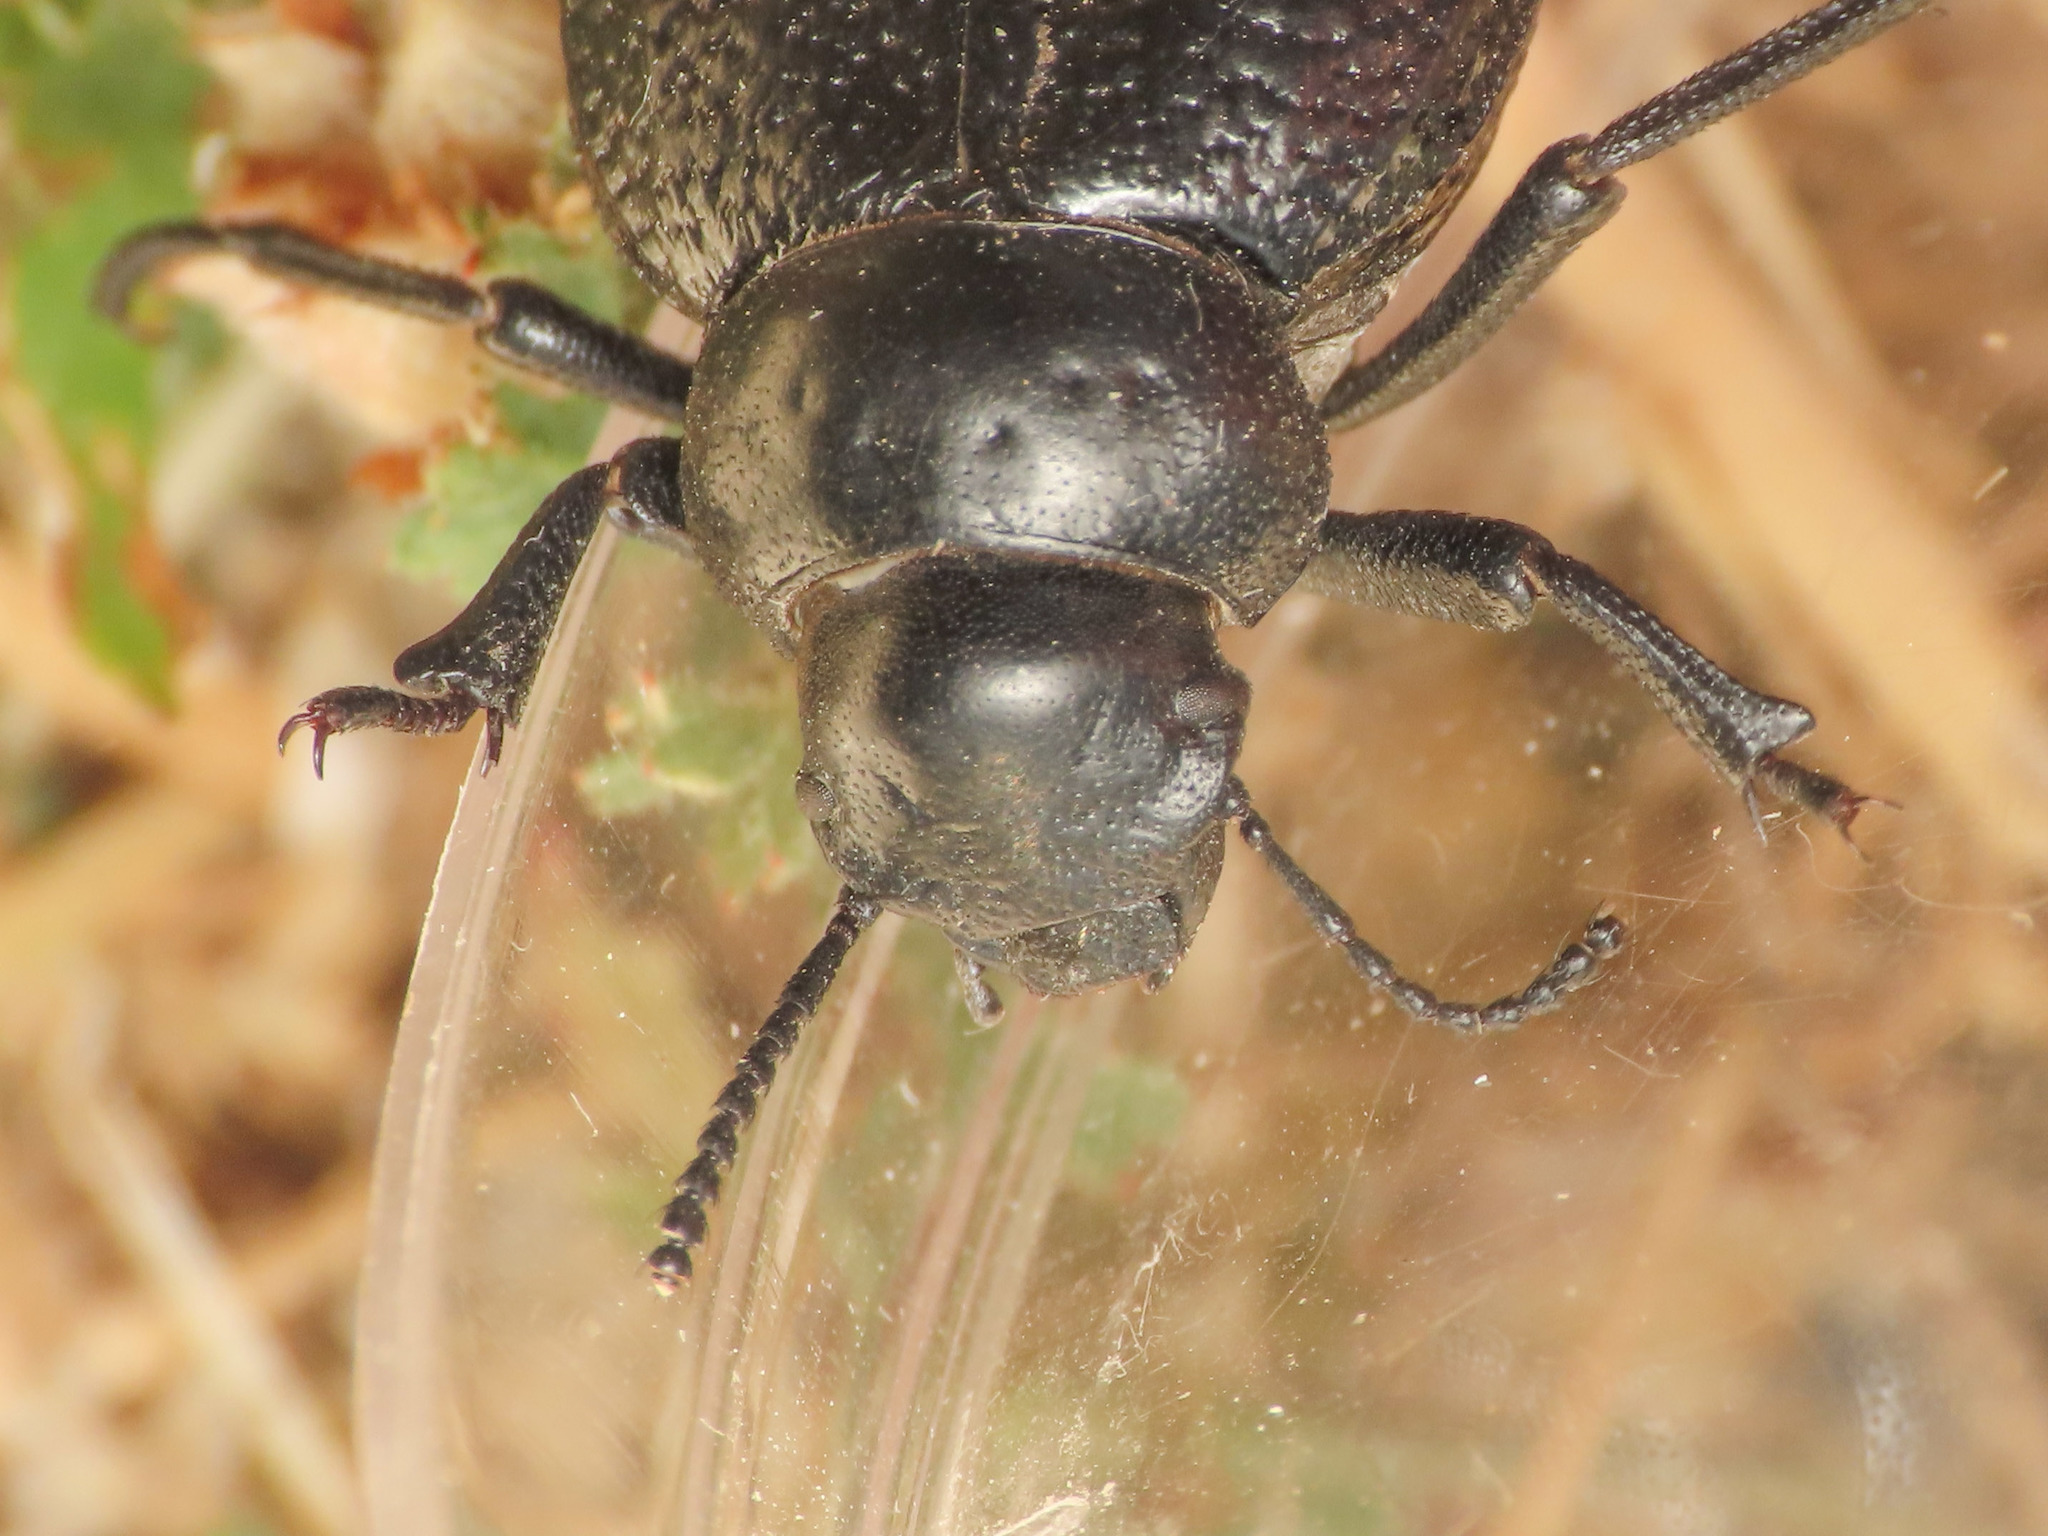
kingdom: Animalia
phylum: Arthropoda
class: Insecta
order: Coleoptera
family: Tenebrionidae
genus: Pimelia
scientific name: Pimelia goryi
